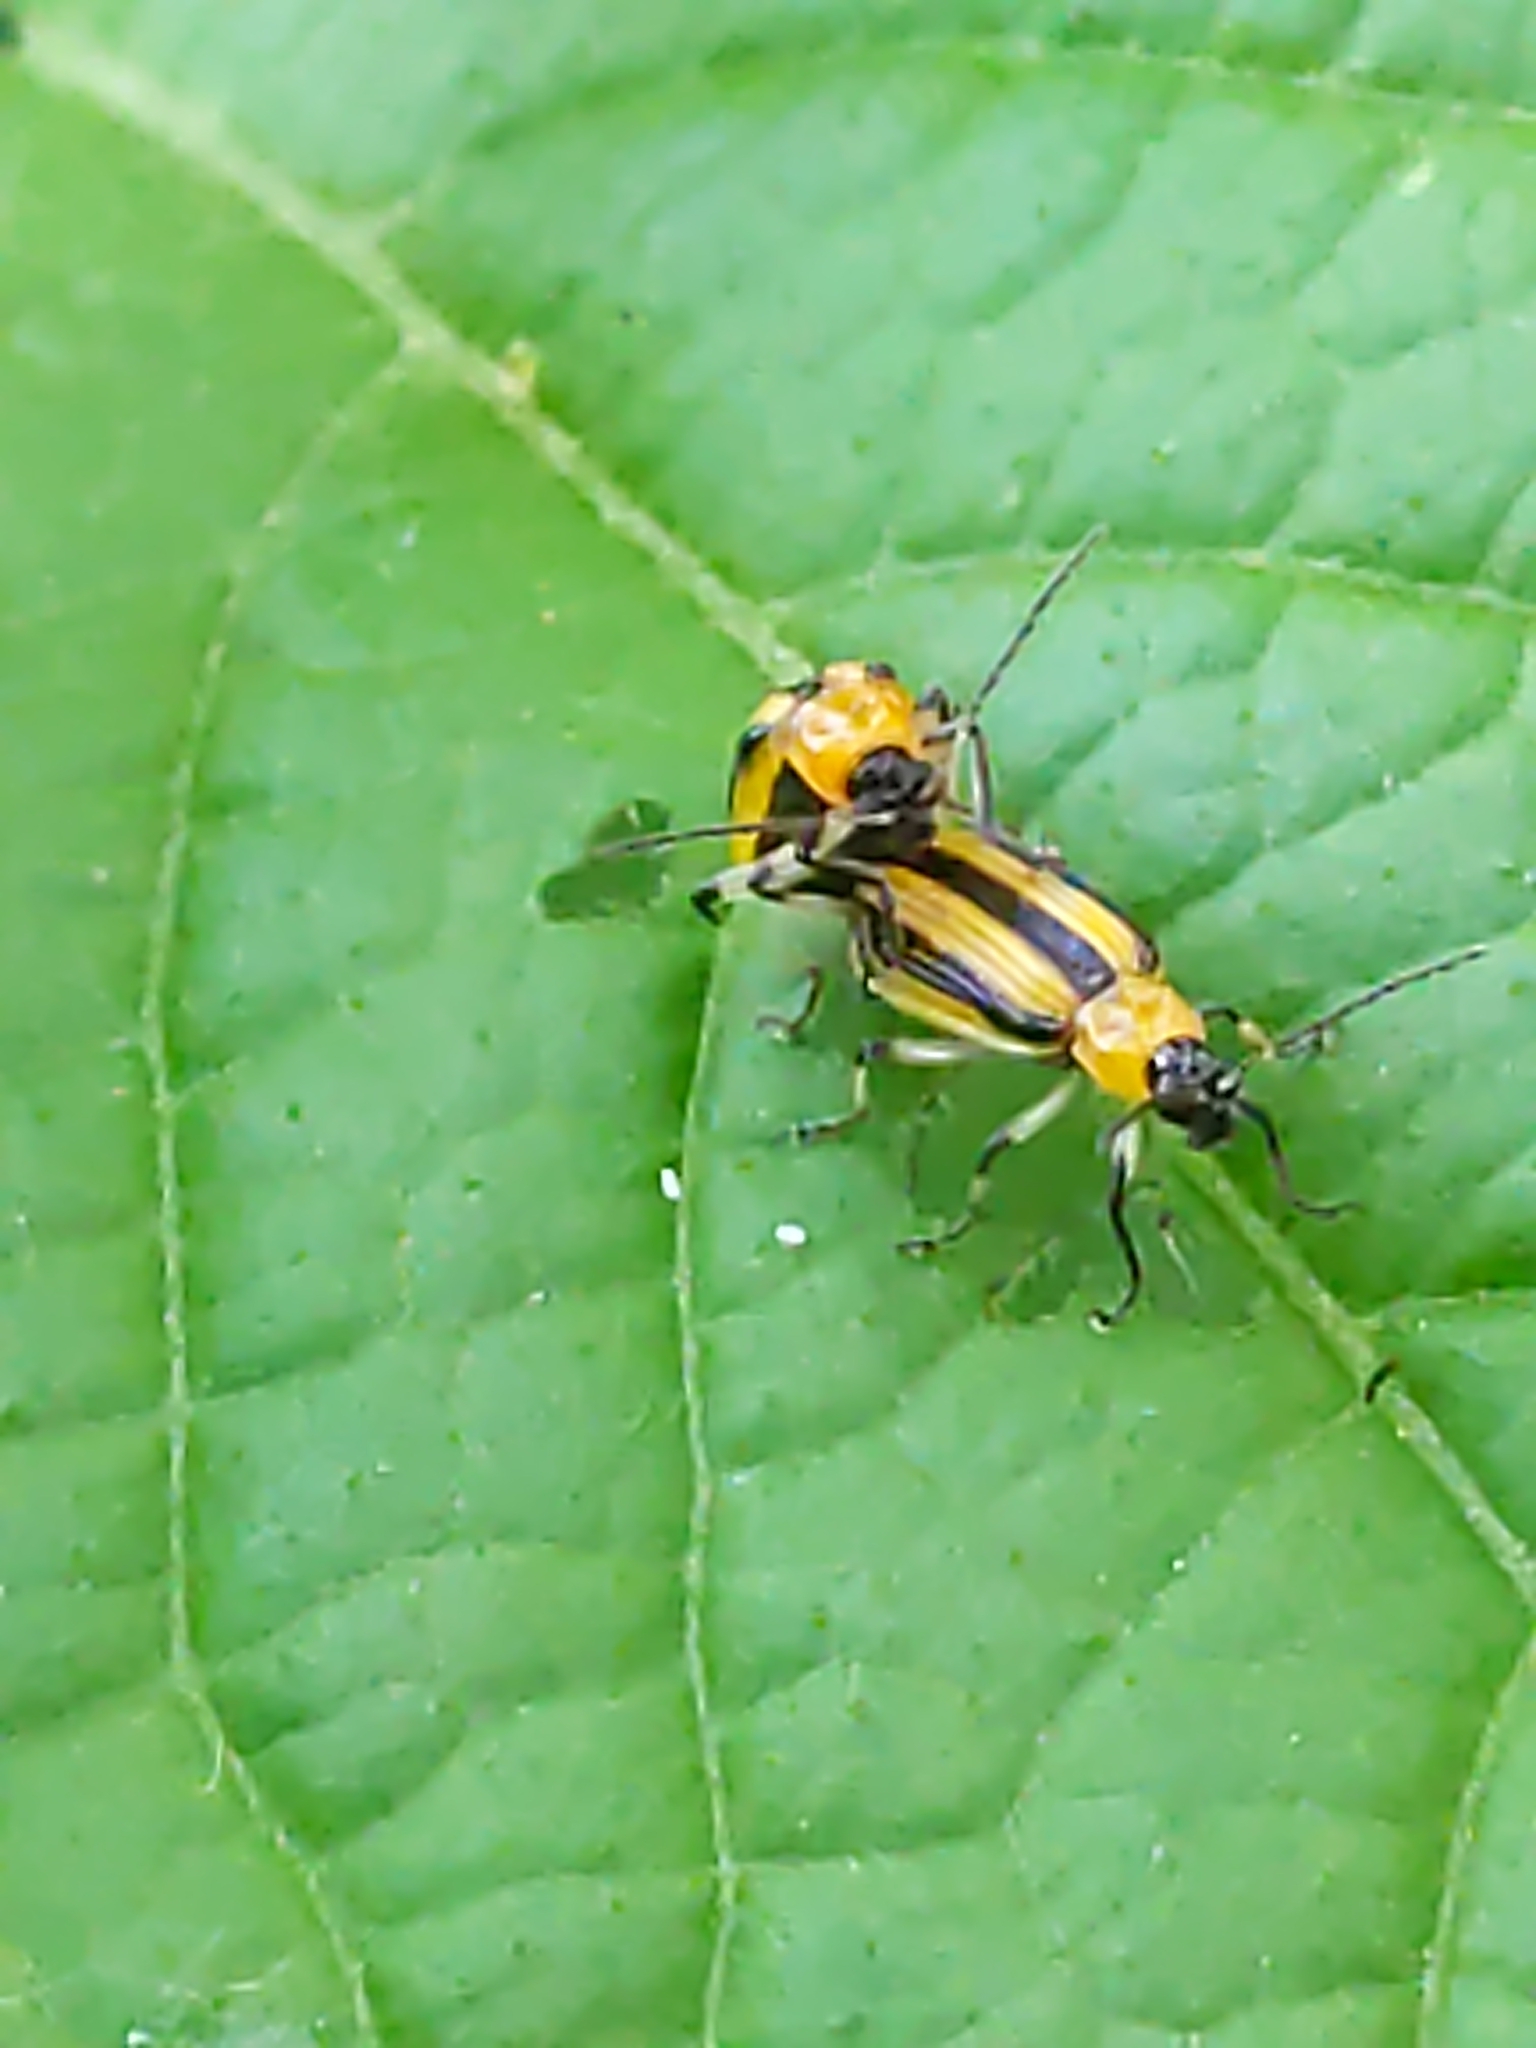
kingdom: Animalia
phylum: Arthropoda
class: Insecta
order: Coleoptera
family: Chrysomelidae
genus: Acalymma
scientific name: Acalymma vittatum
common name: Striped cucumber beetle
